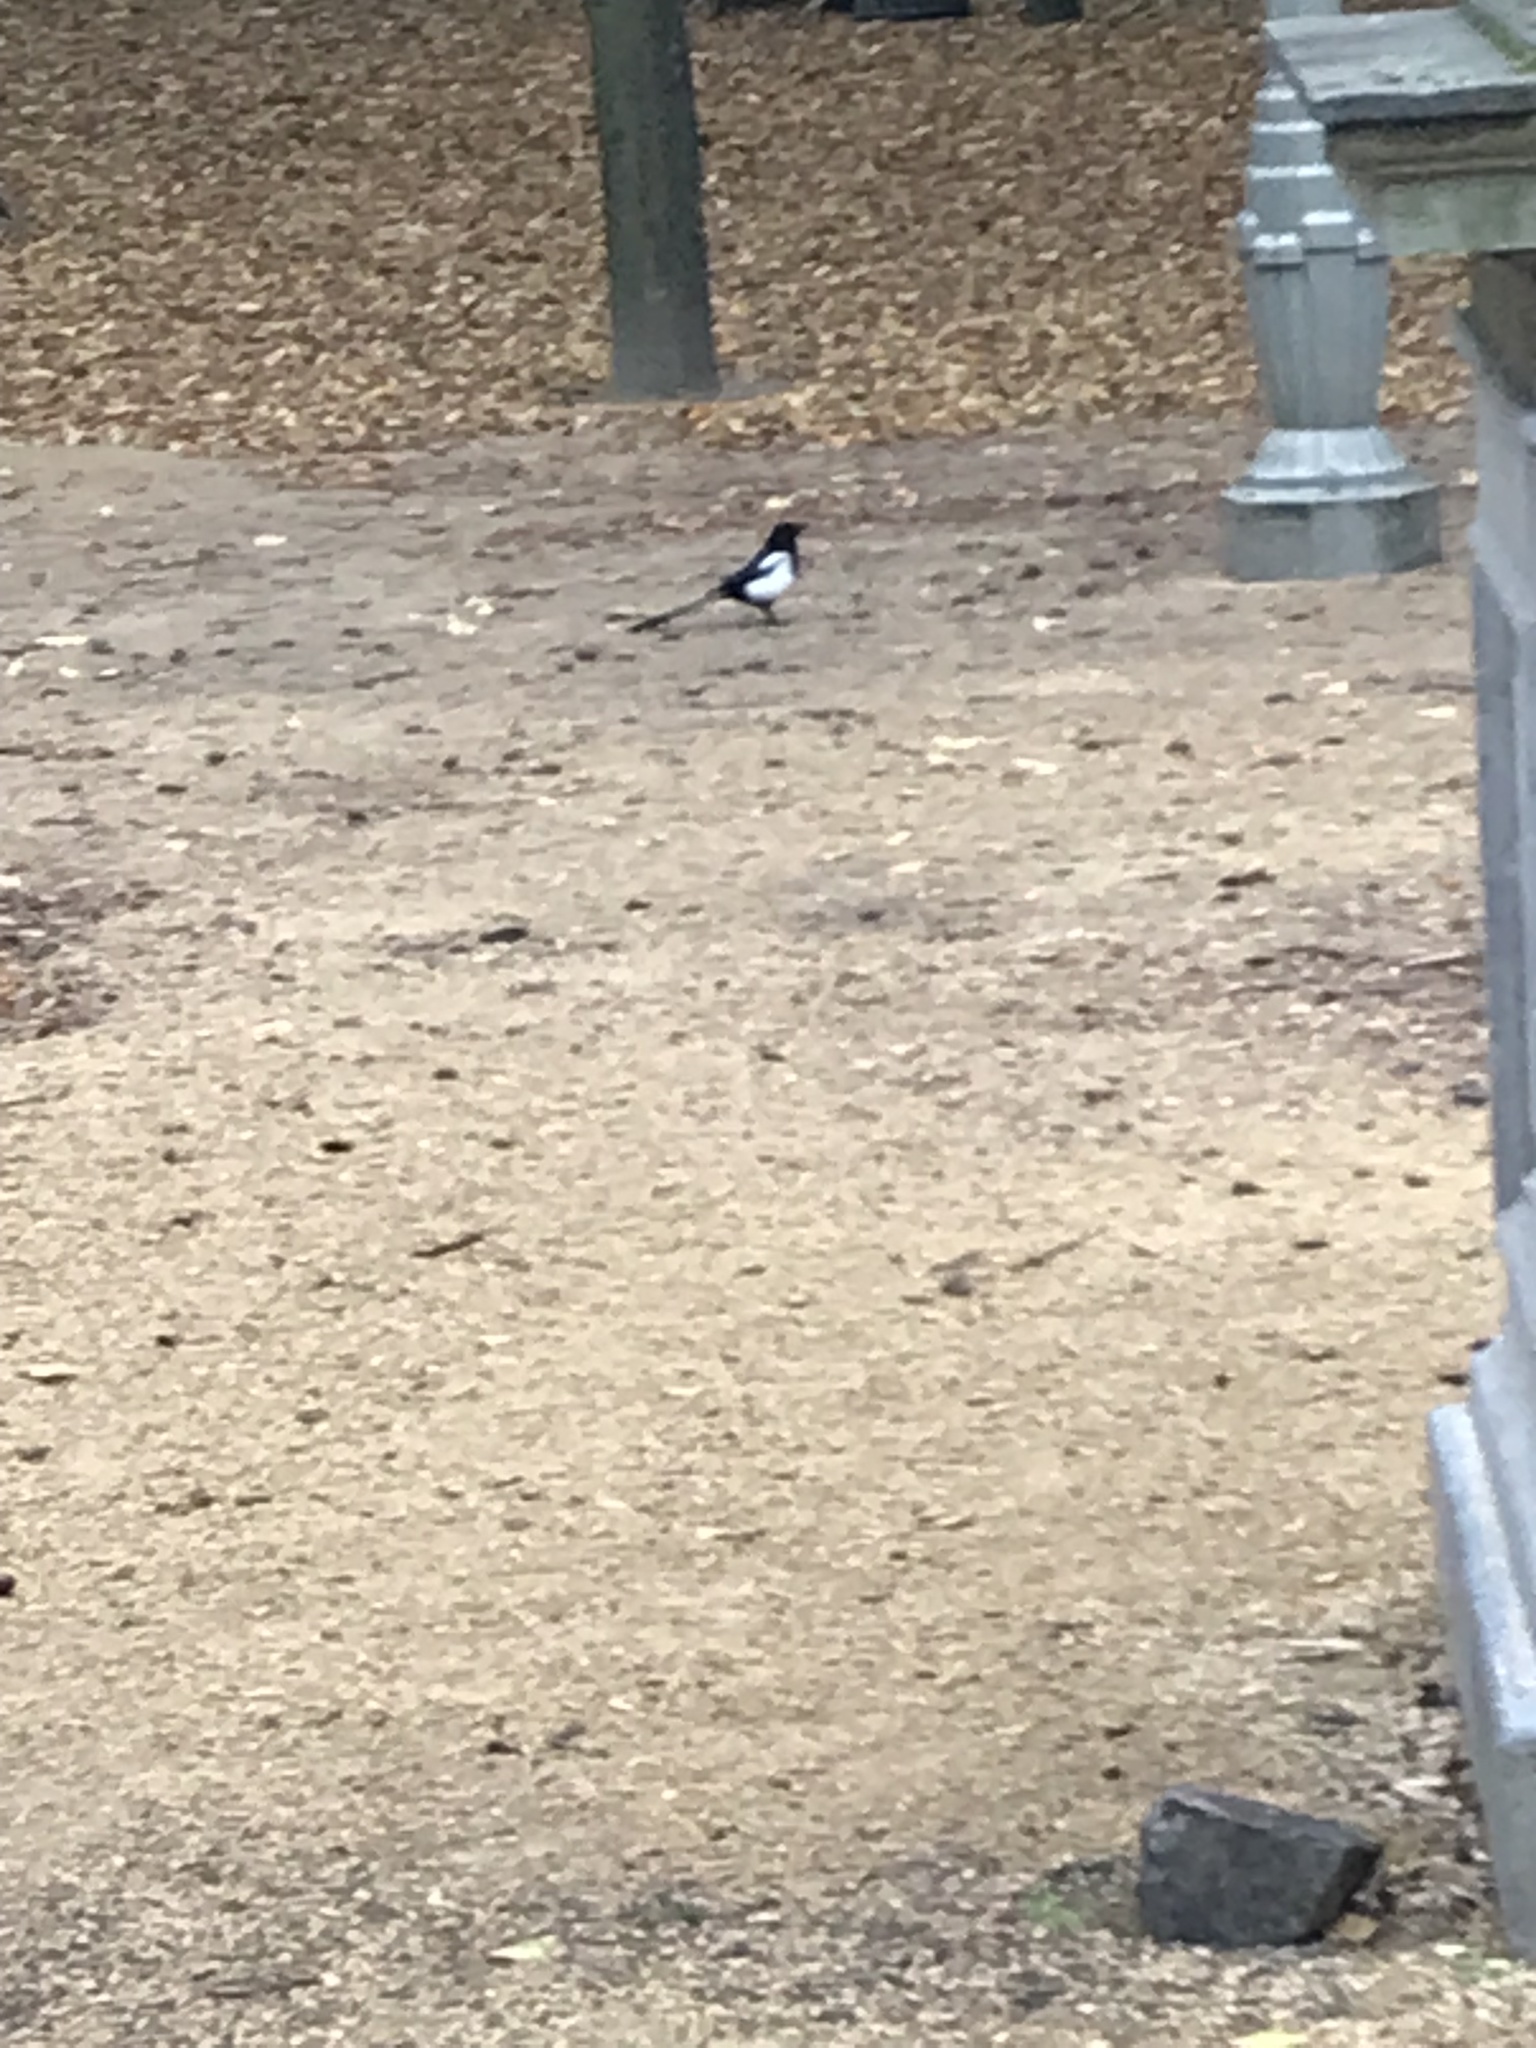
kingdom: Animalia
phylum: Chordata
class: Aves
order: Passeriformes
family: Corvidae
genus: Pica
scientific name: Pica pica
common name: Eurasian magpie
